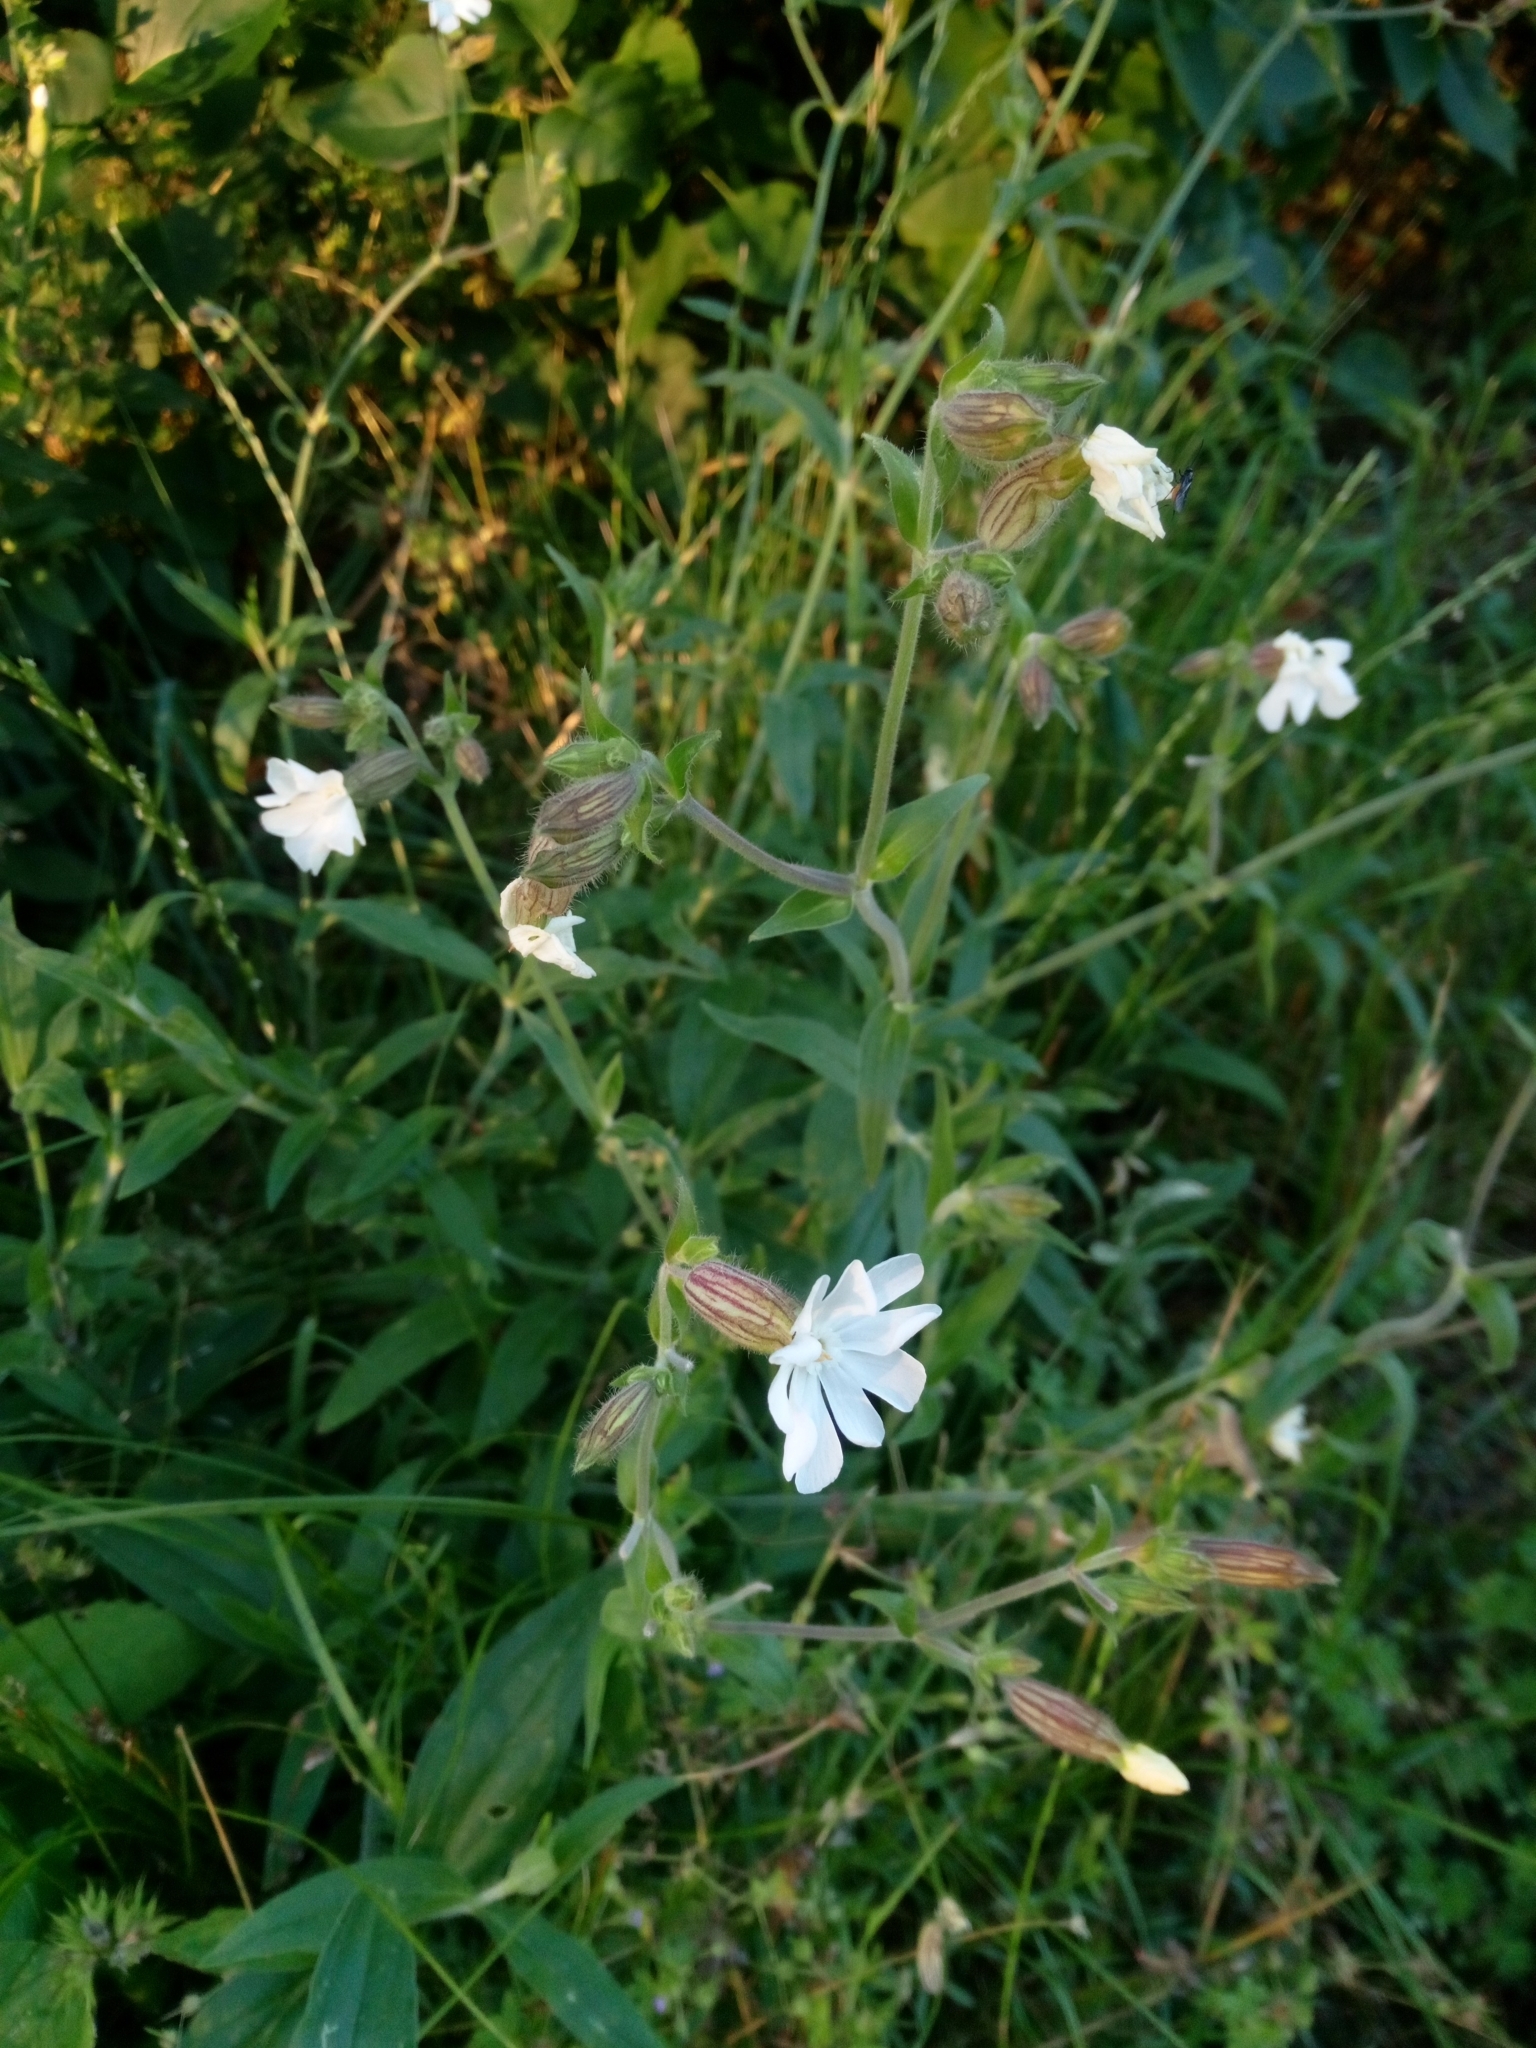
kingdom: Plantae
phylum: Tracheophyta
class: Magnoliopsida
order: Caryophyllales
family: Caryophyllaceae
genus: Silene
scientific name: Silene latifolia
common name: White campion
